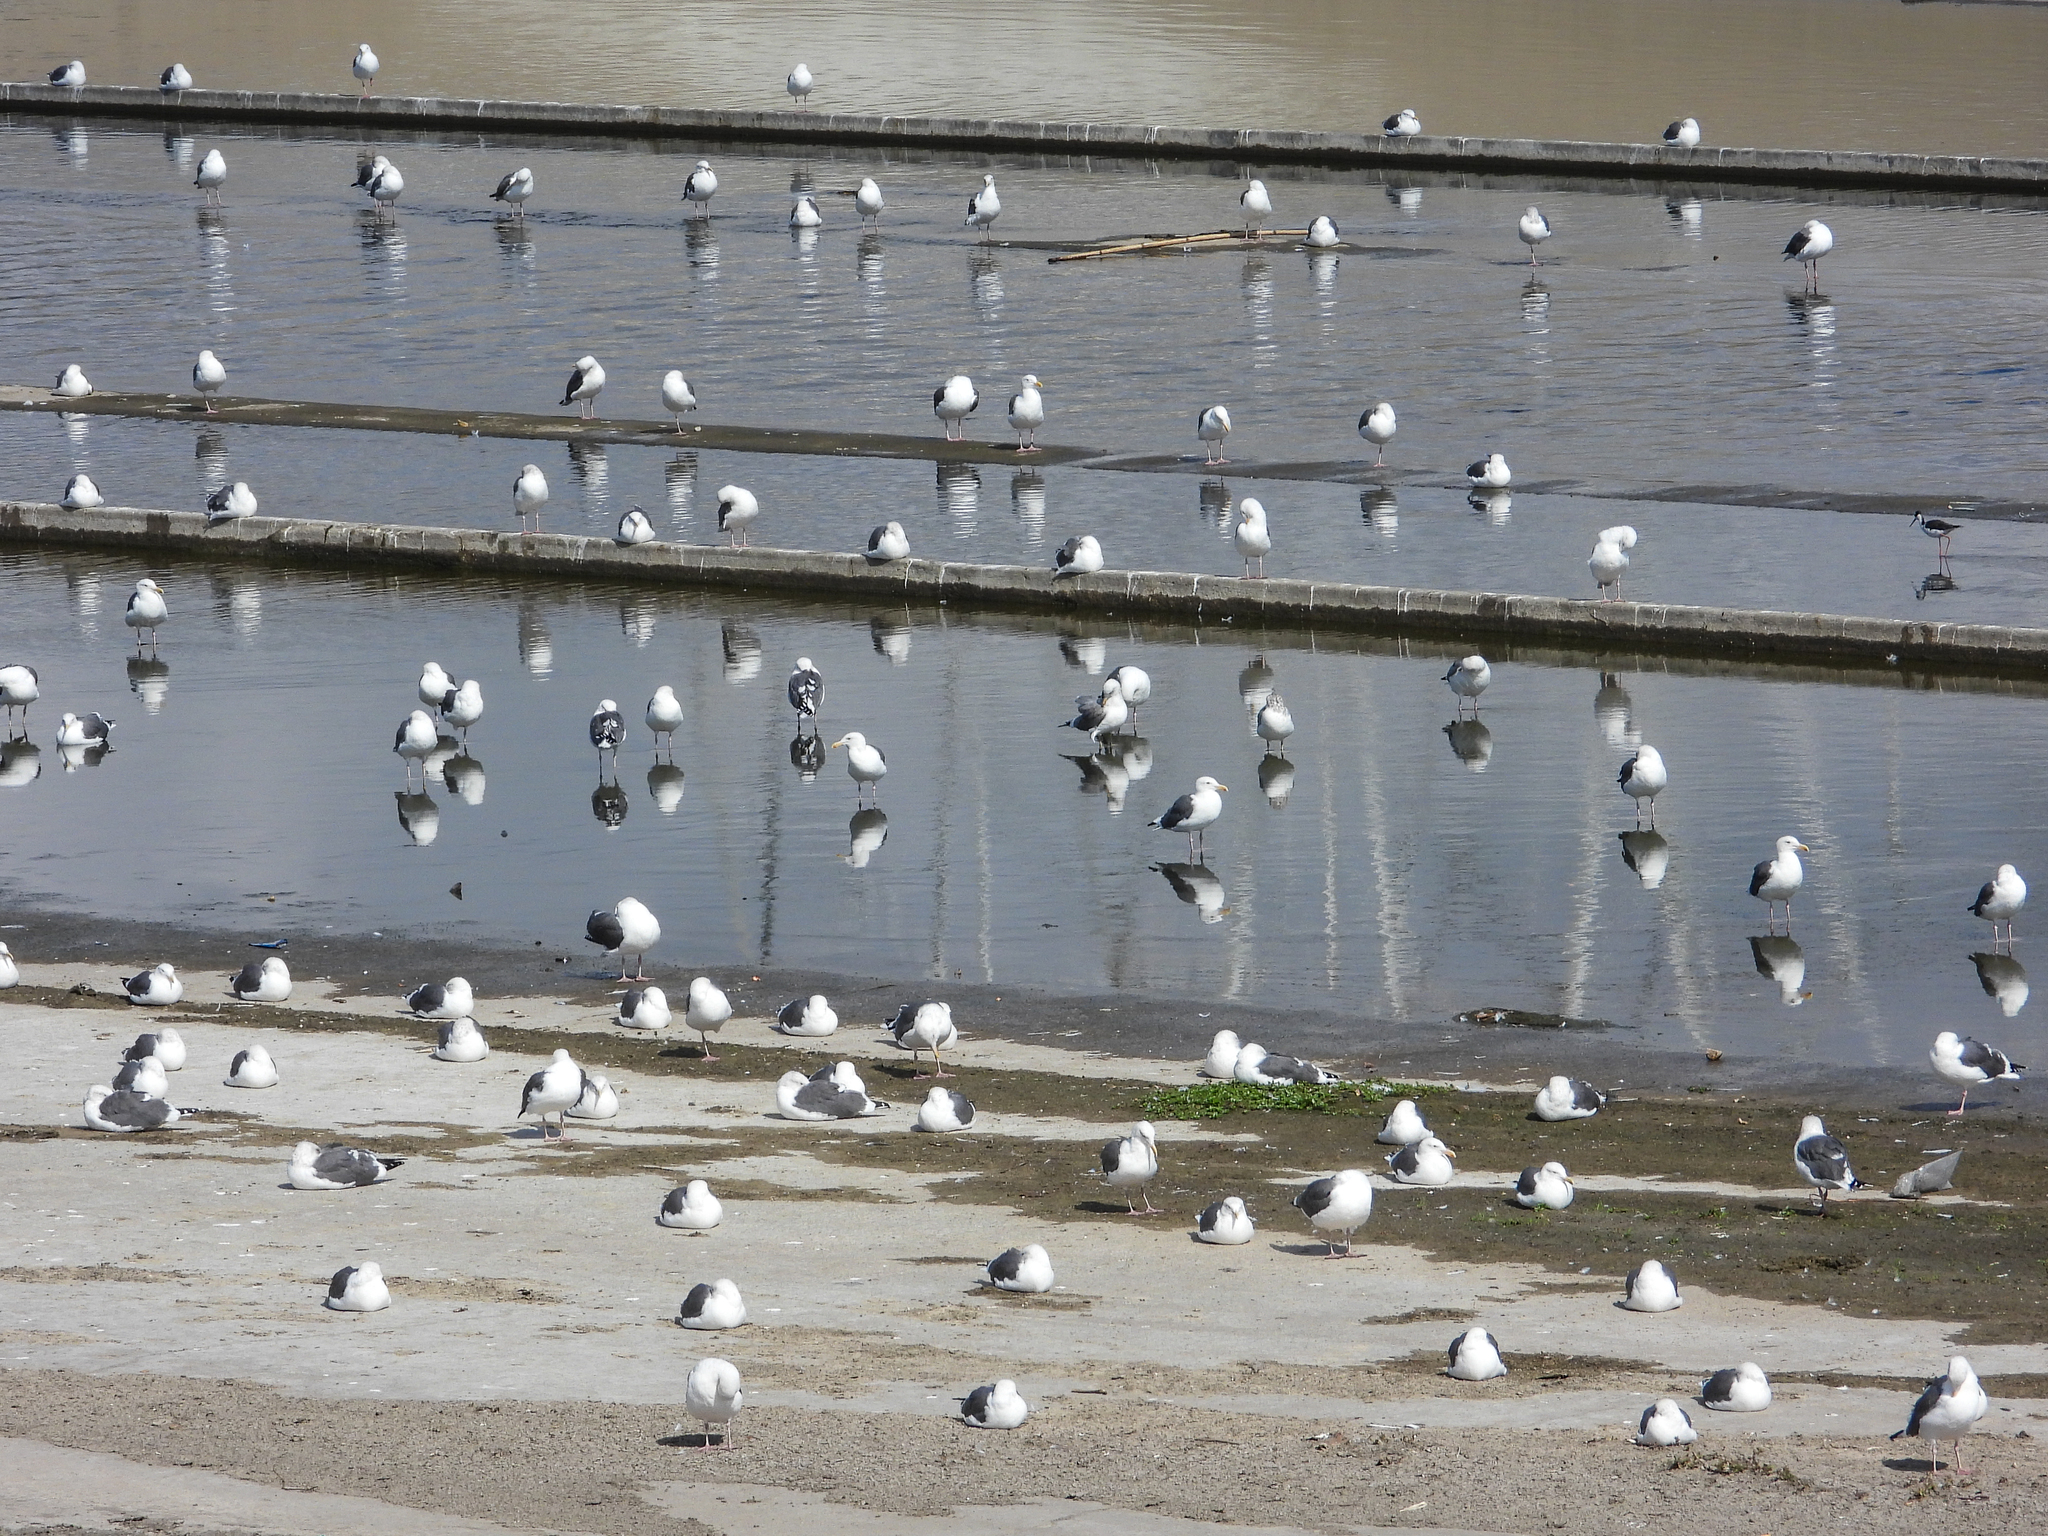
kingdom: Animalia
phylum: Chordata
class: Aves
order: Charadriiformes
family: Laridae
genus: Larus
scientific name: Larus occidentalis
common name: Western gull
